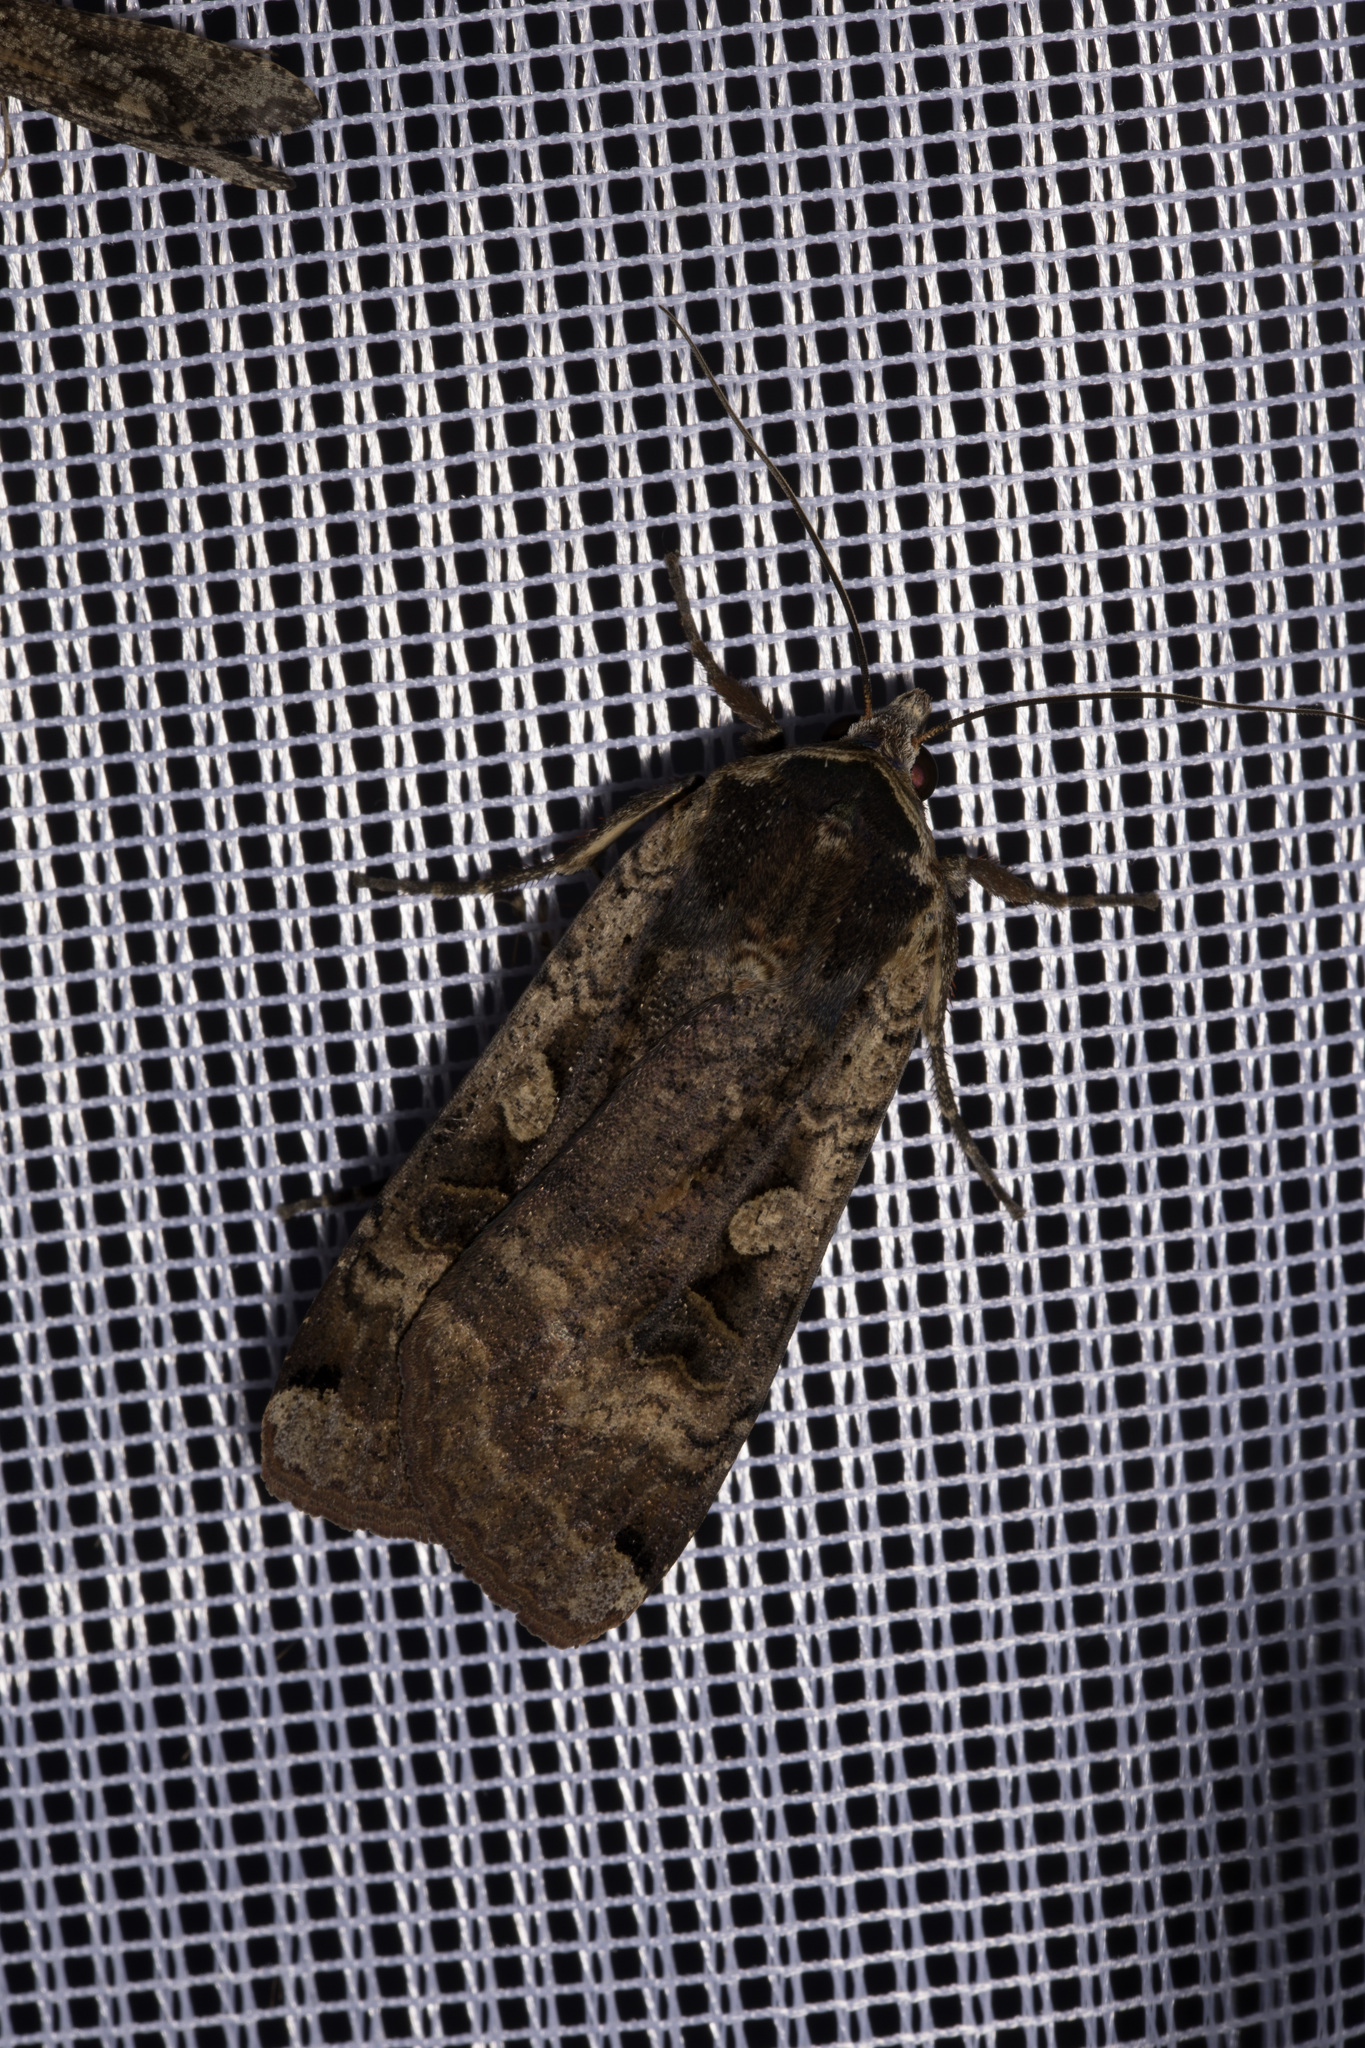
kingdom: Animalia
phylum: Arthropoda
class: Insecta
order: Lepidoptera
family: Noctuidae
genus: Noctua
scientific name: Noctua pronuba
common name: Large yellow underwing
